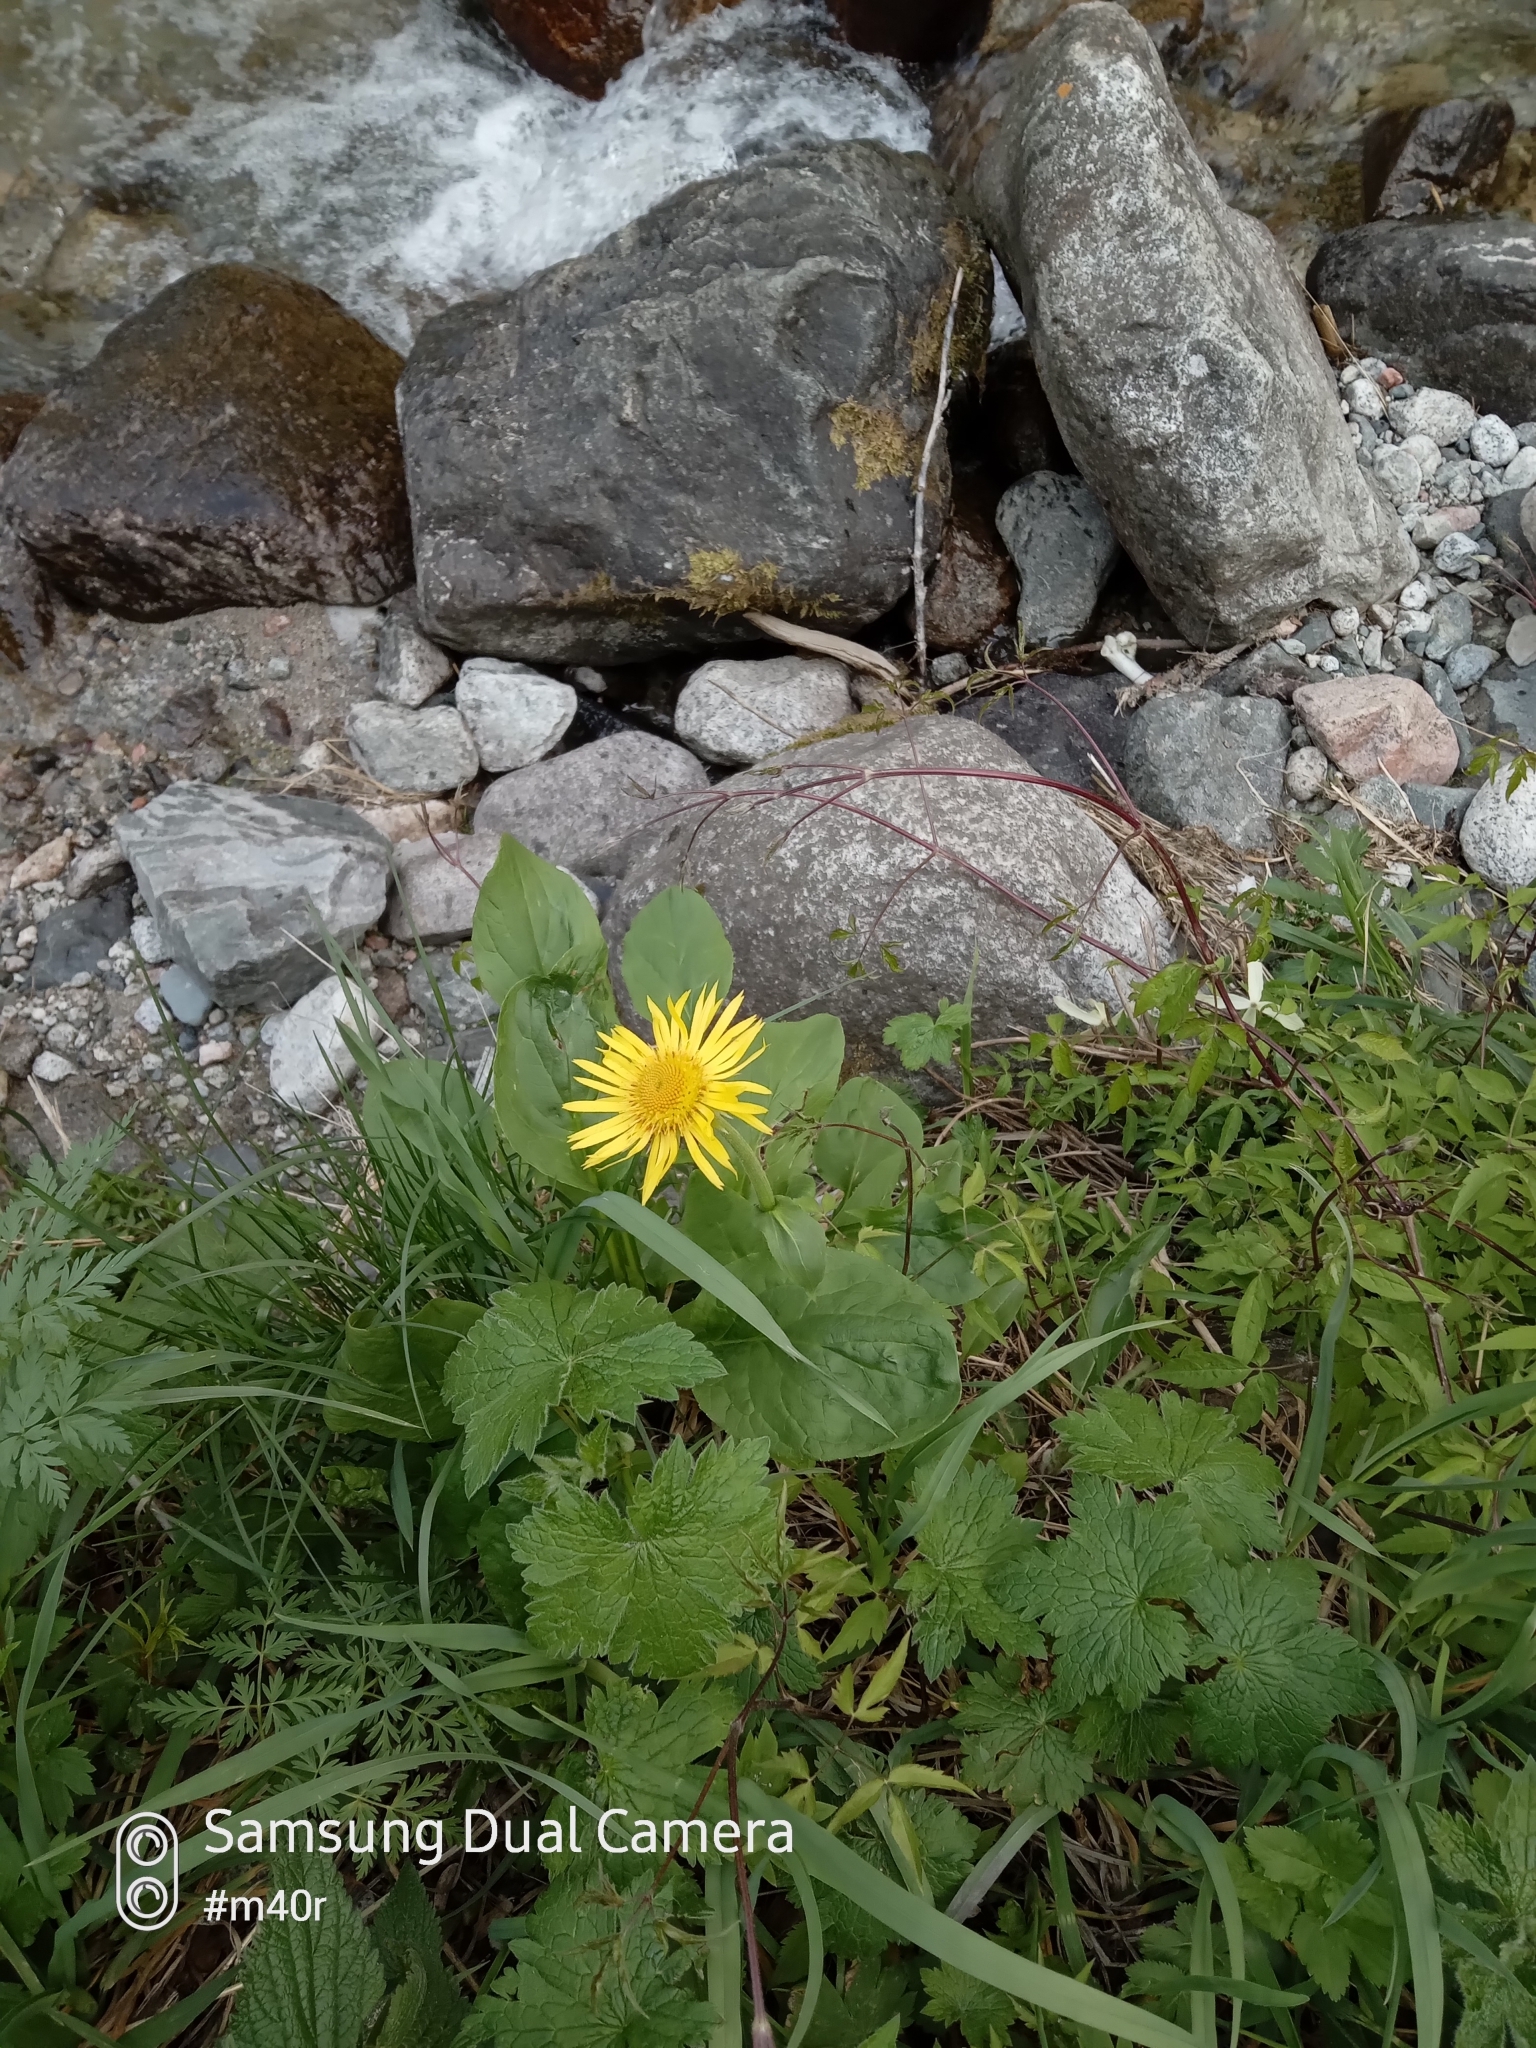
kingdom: Plantae
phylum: Tracheophyta
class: Magnoliopsida
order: Asterales
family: Asteraceae
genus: Doronicum
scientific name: Doronicum turkestanicum
